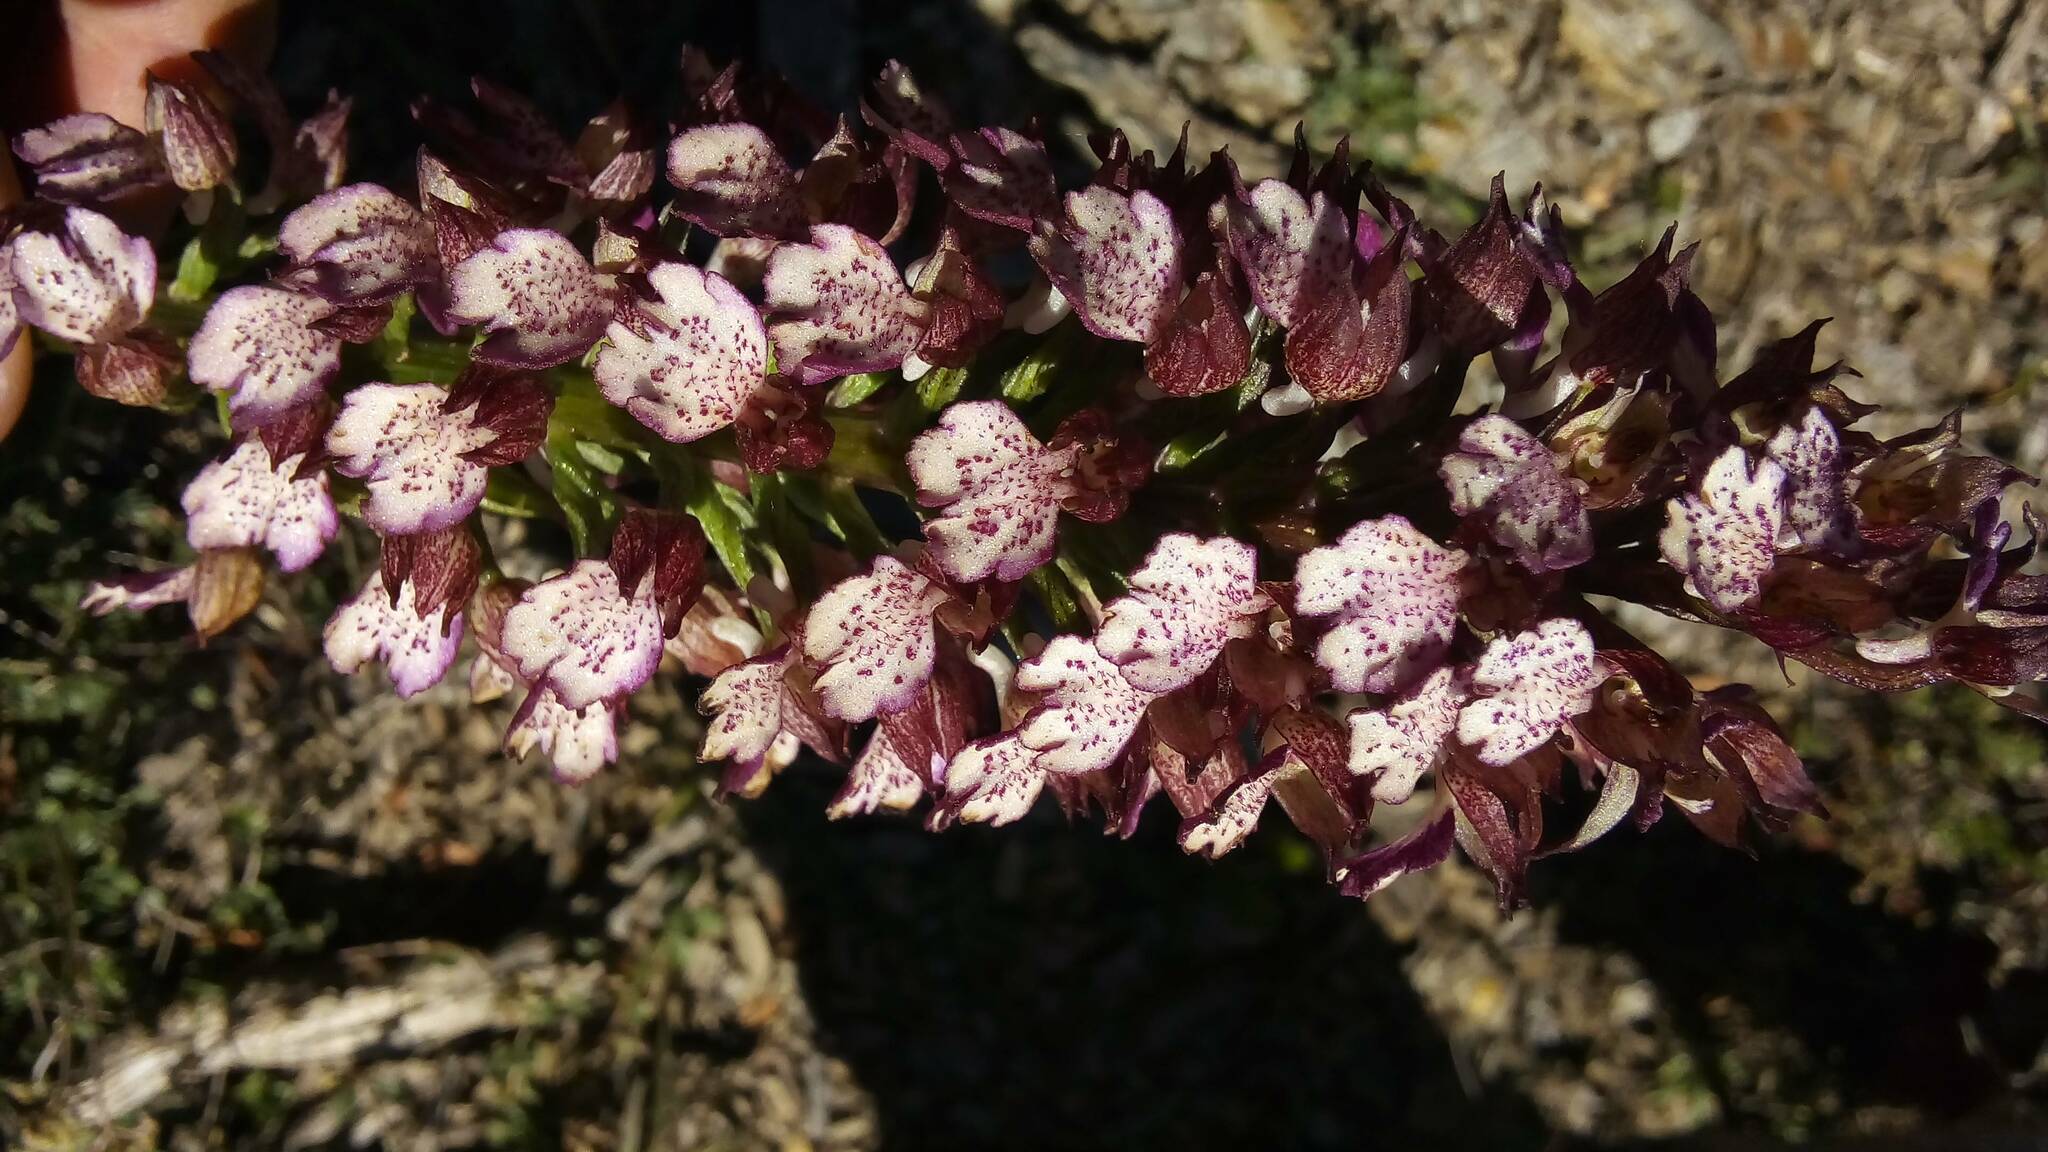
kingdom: Plantae
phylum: Tracheophyta
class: Liliopsida
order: Asparagales
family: Orchidaceae
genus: Orchis
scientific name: Orchis purpurea
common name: Lady orchid
